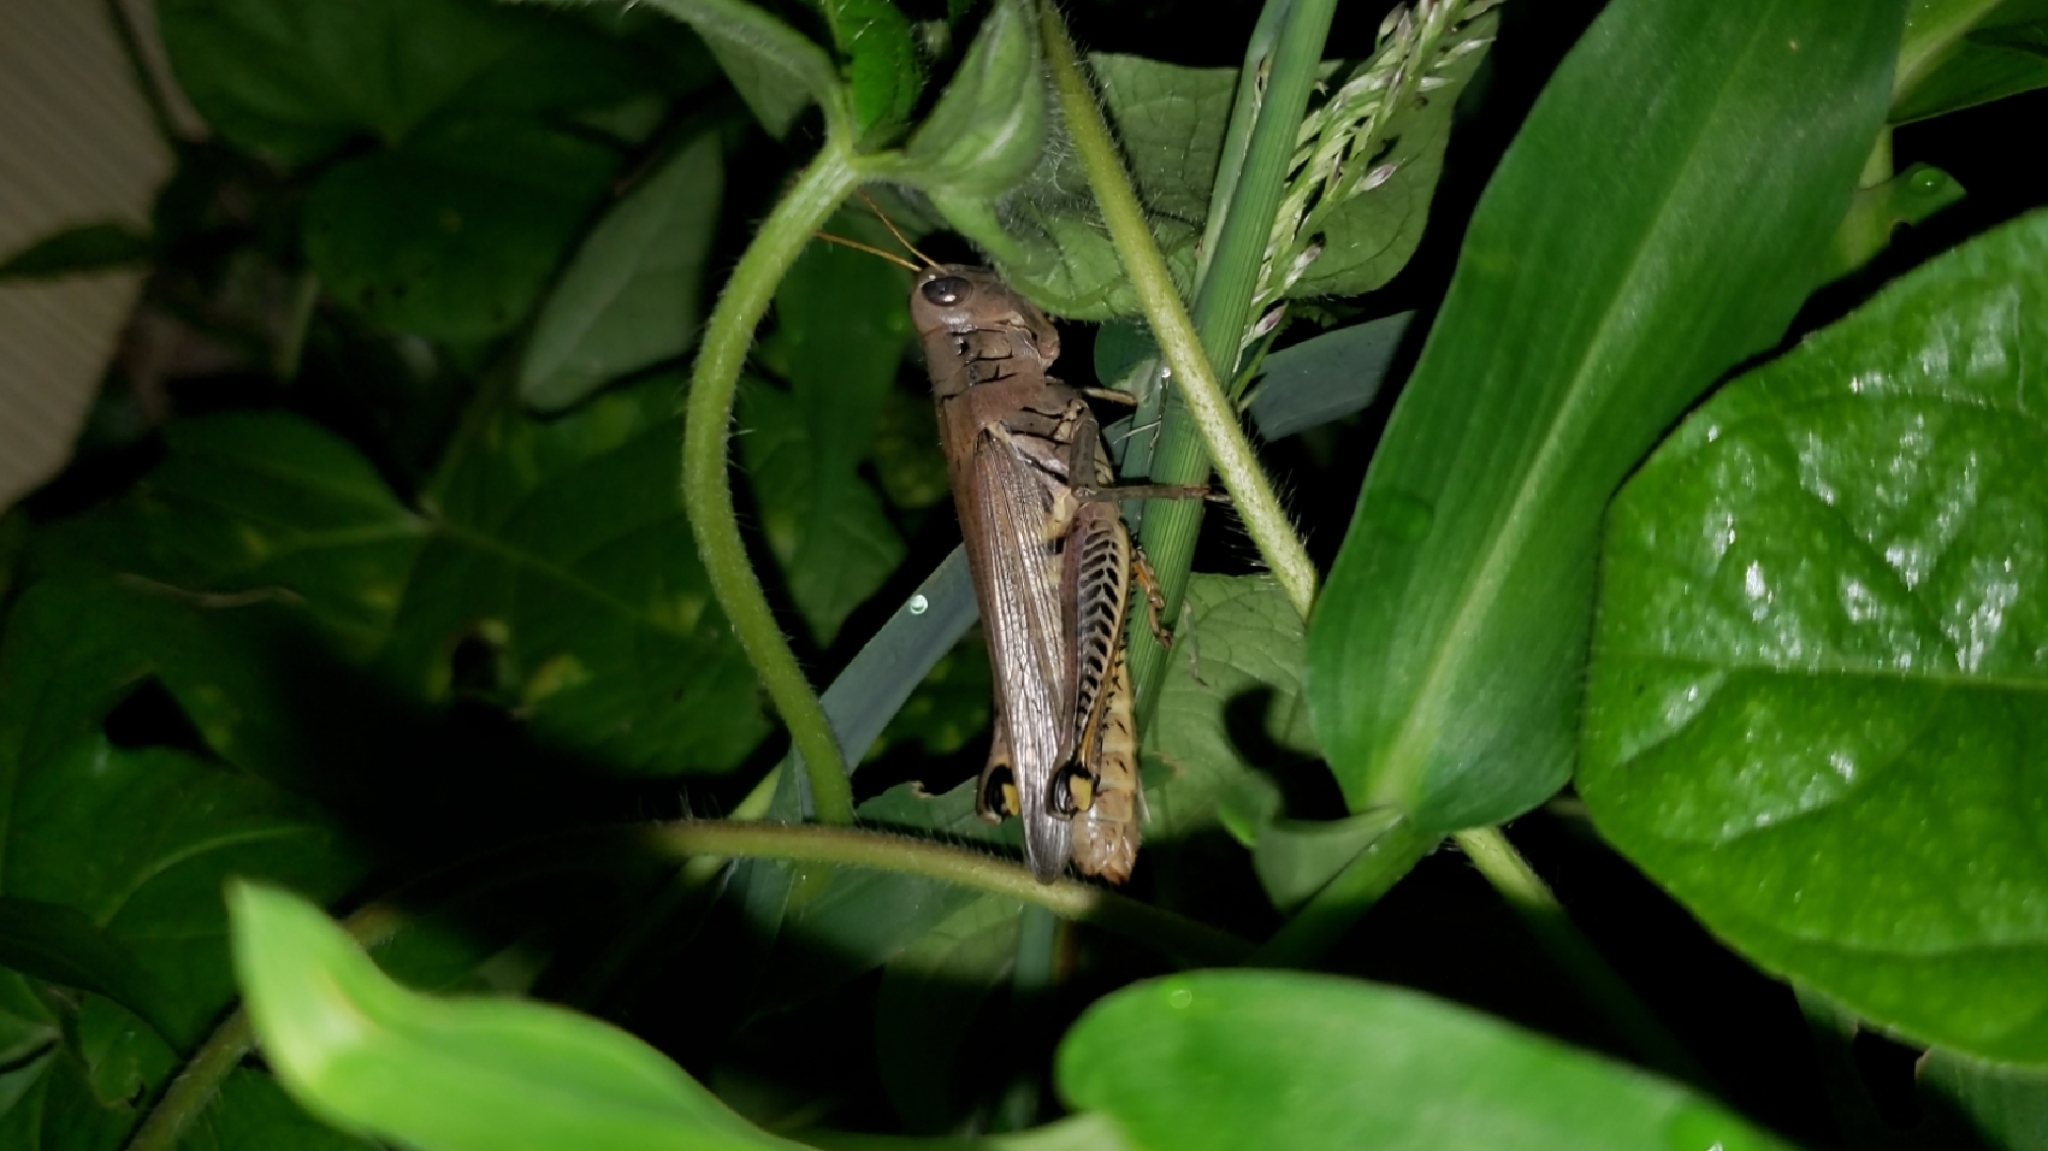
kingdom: Animalia
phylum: Arthropoda
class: Insecta
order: Orthoptera
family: Acrididae
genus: Melanoplus
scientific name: Melanoplus differentialis
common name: Differential grasshopper
